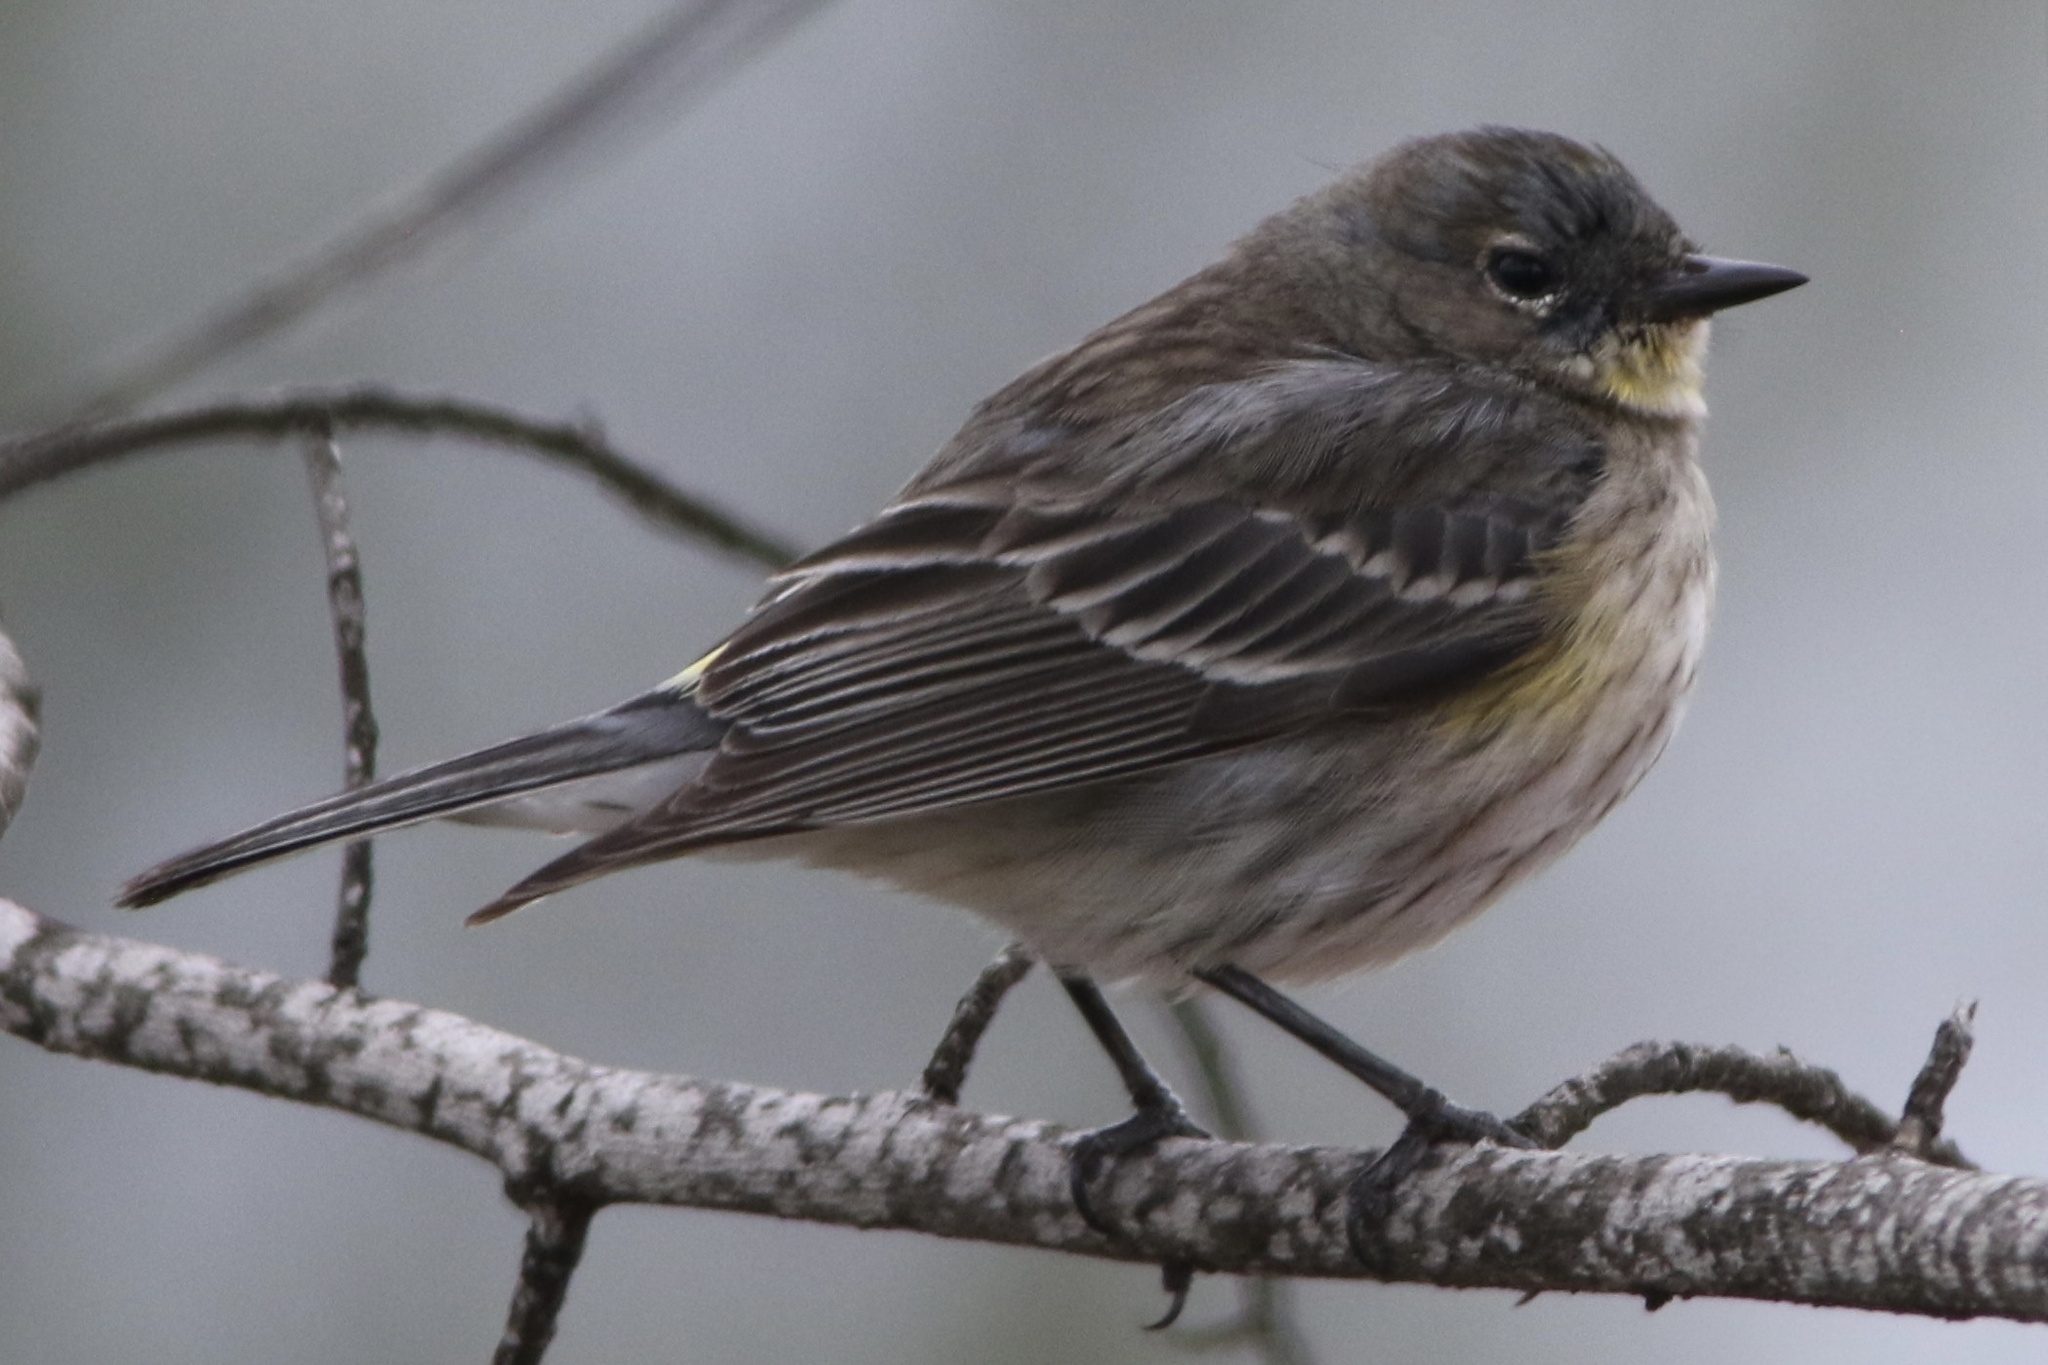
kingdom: Animalia
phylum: Chordata
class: Aves
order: Passeriformes
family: Parulidae
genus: Setophaga
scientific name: Setophaga coronata
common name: Myrtle warbler
